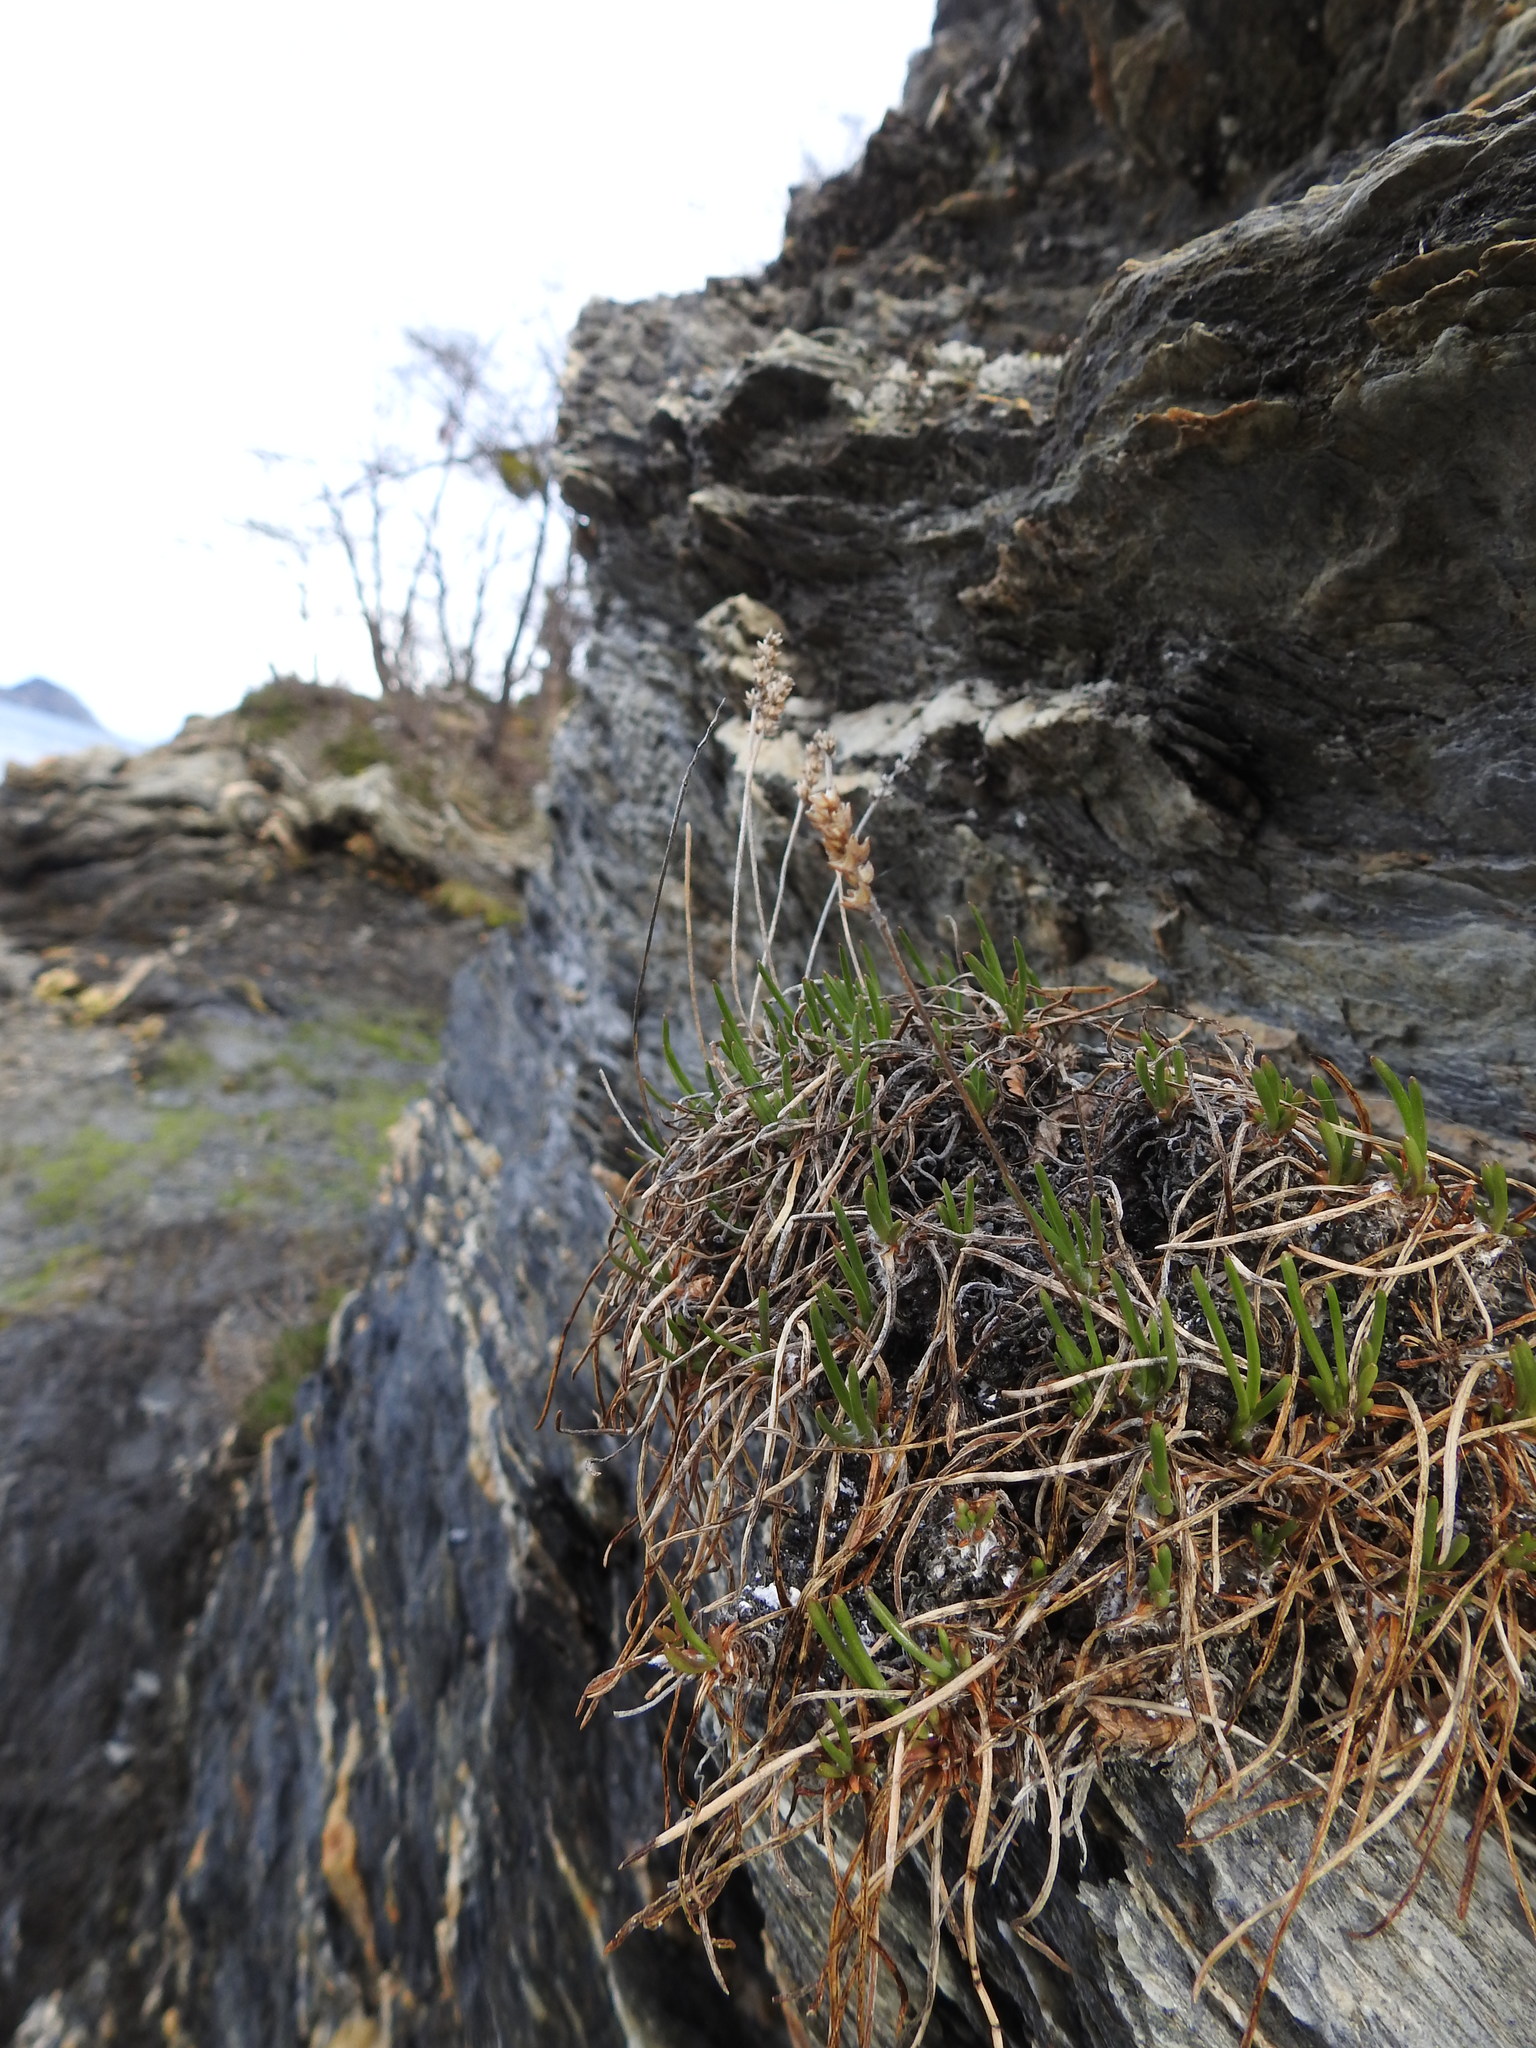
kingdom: Plantae
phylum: Tracheophyta
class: Magnoliopsida
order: Lamiales
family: Plantaginaceae
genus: Plantago
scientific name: Plantago maritima
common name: Sea plantain
